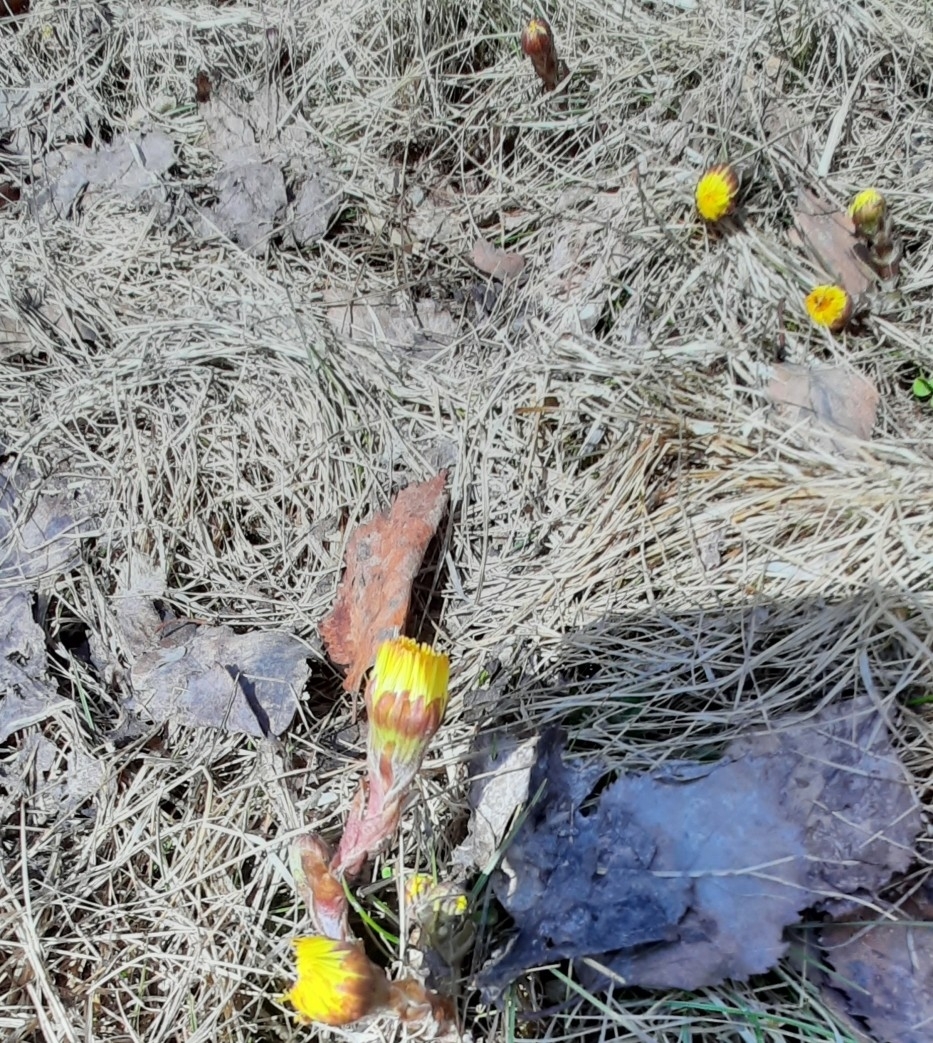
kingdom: Plantae
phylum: Tracheophyta
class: Magnoliopsida
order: Asterales
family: Asteraceae
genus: Tussilago
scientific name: Tussilago farfara
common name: Coltsfoot
